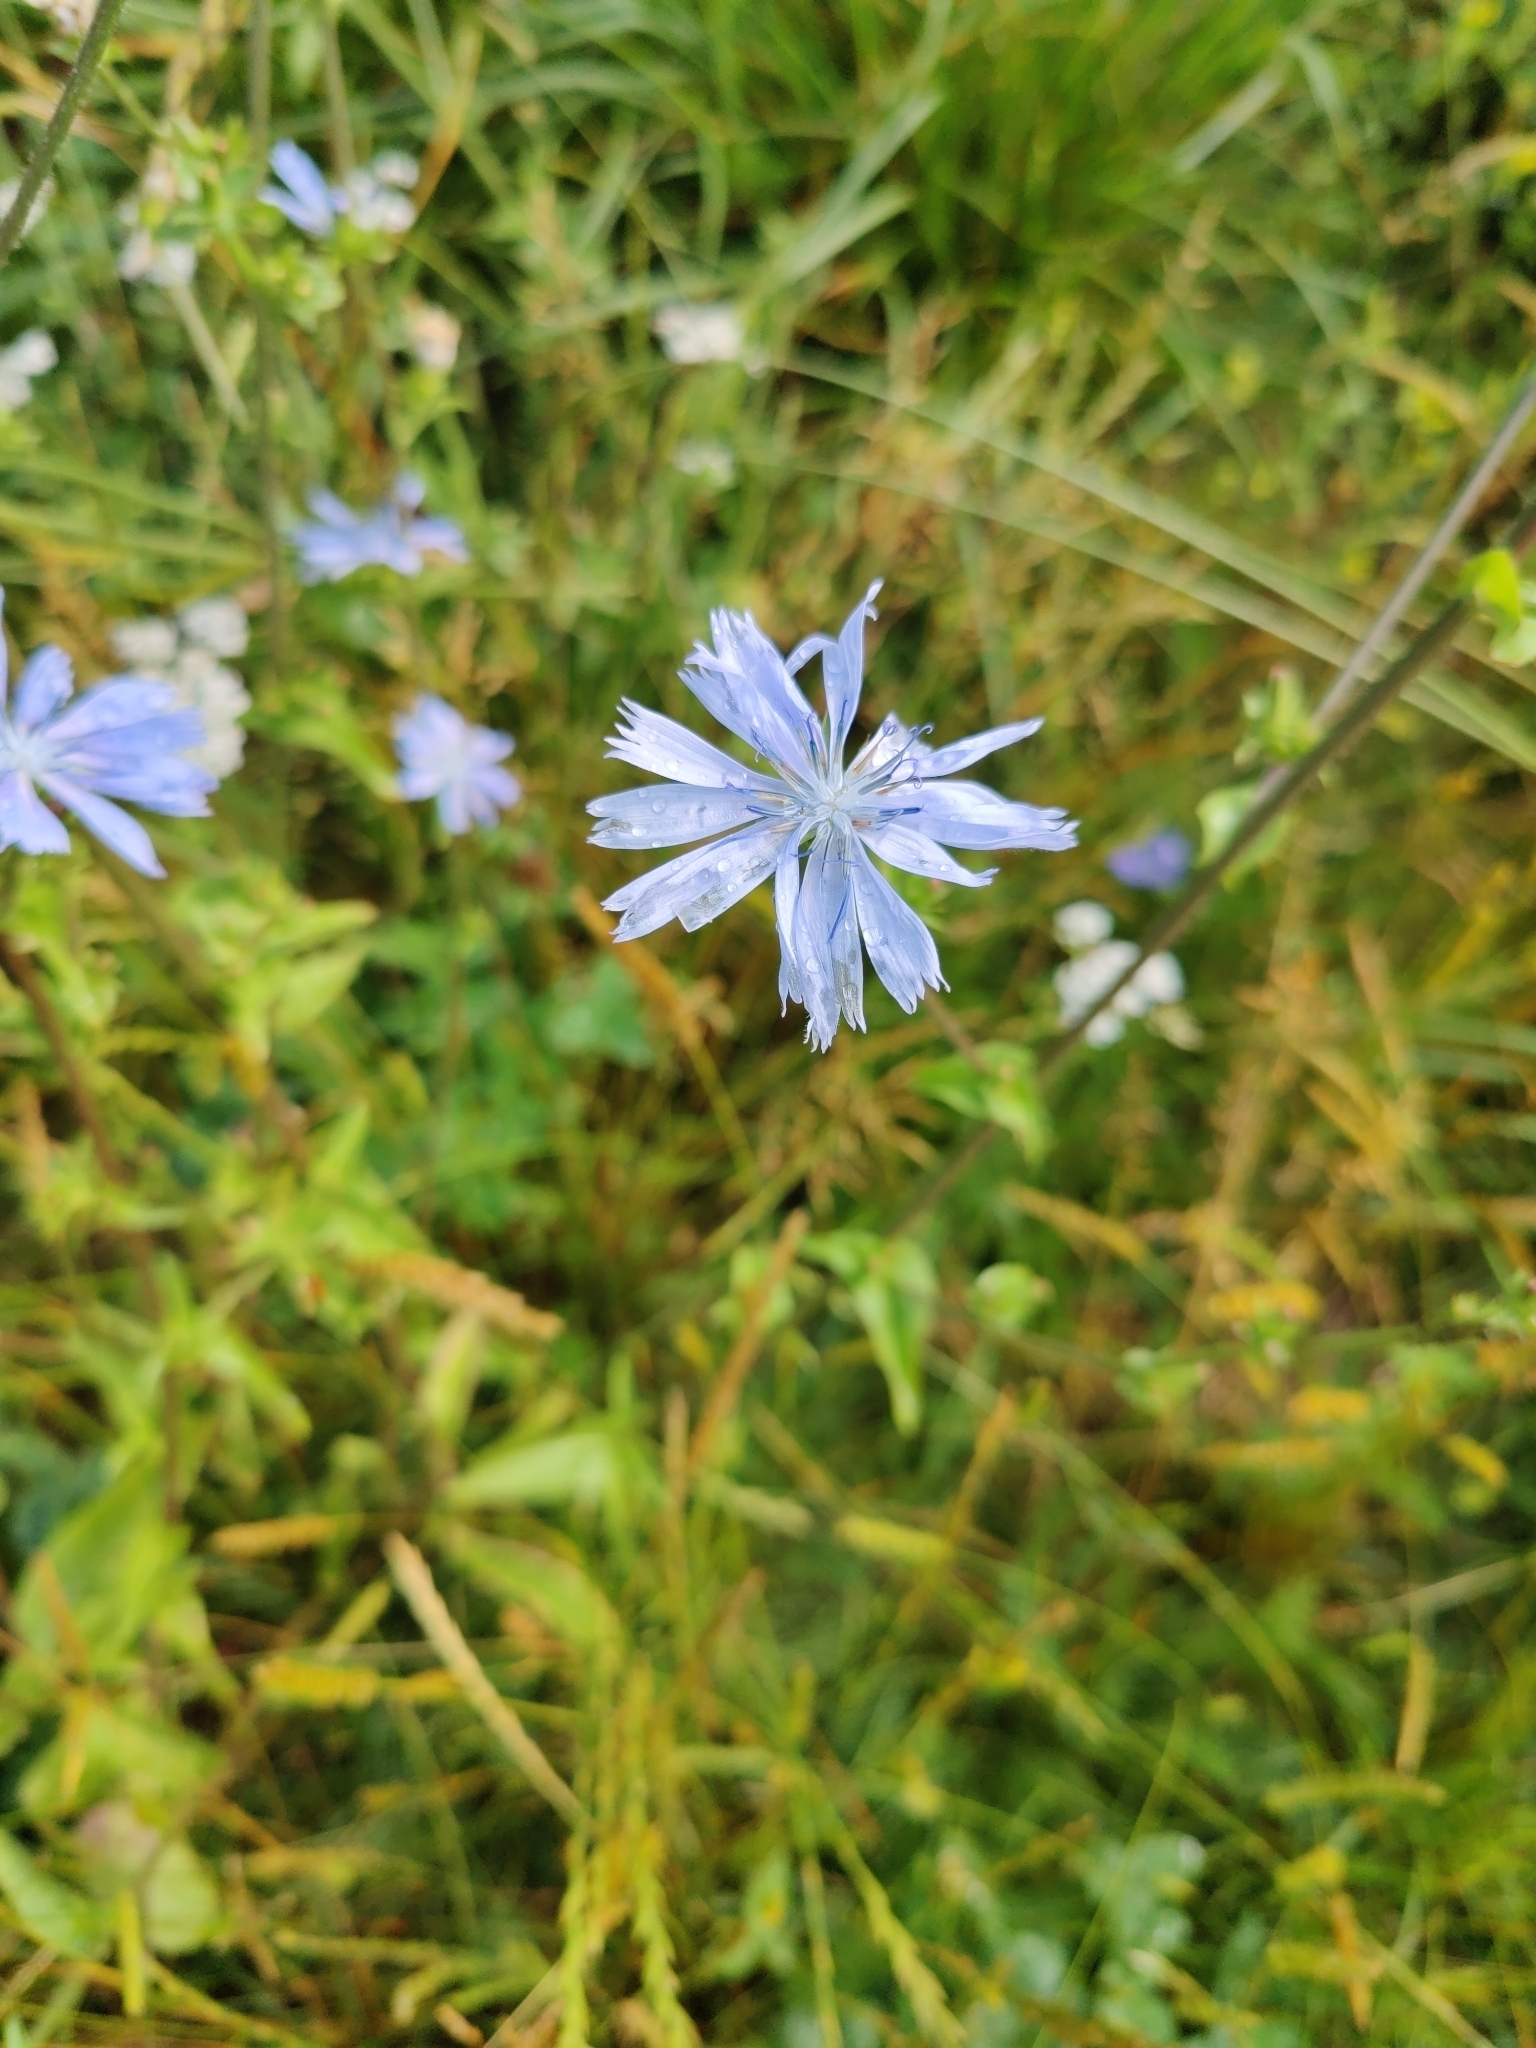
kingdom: Plantae
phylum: Tracheophyta
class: Magnoliopsida
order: Asterales
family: Asteraceae
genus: Cichorium
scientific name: Cichorium intybus
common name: Chicory
